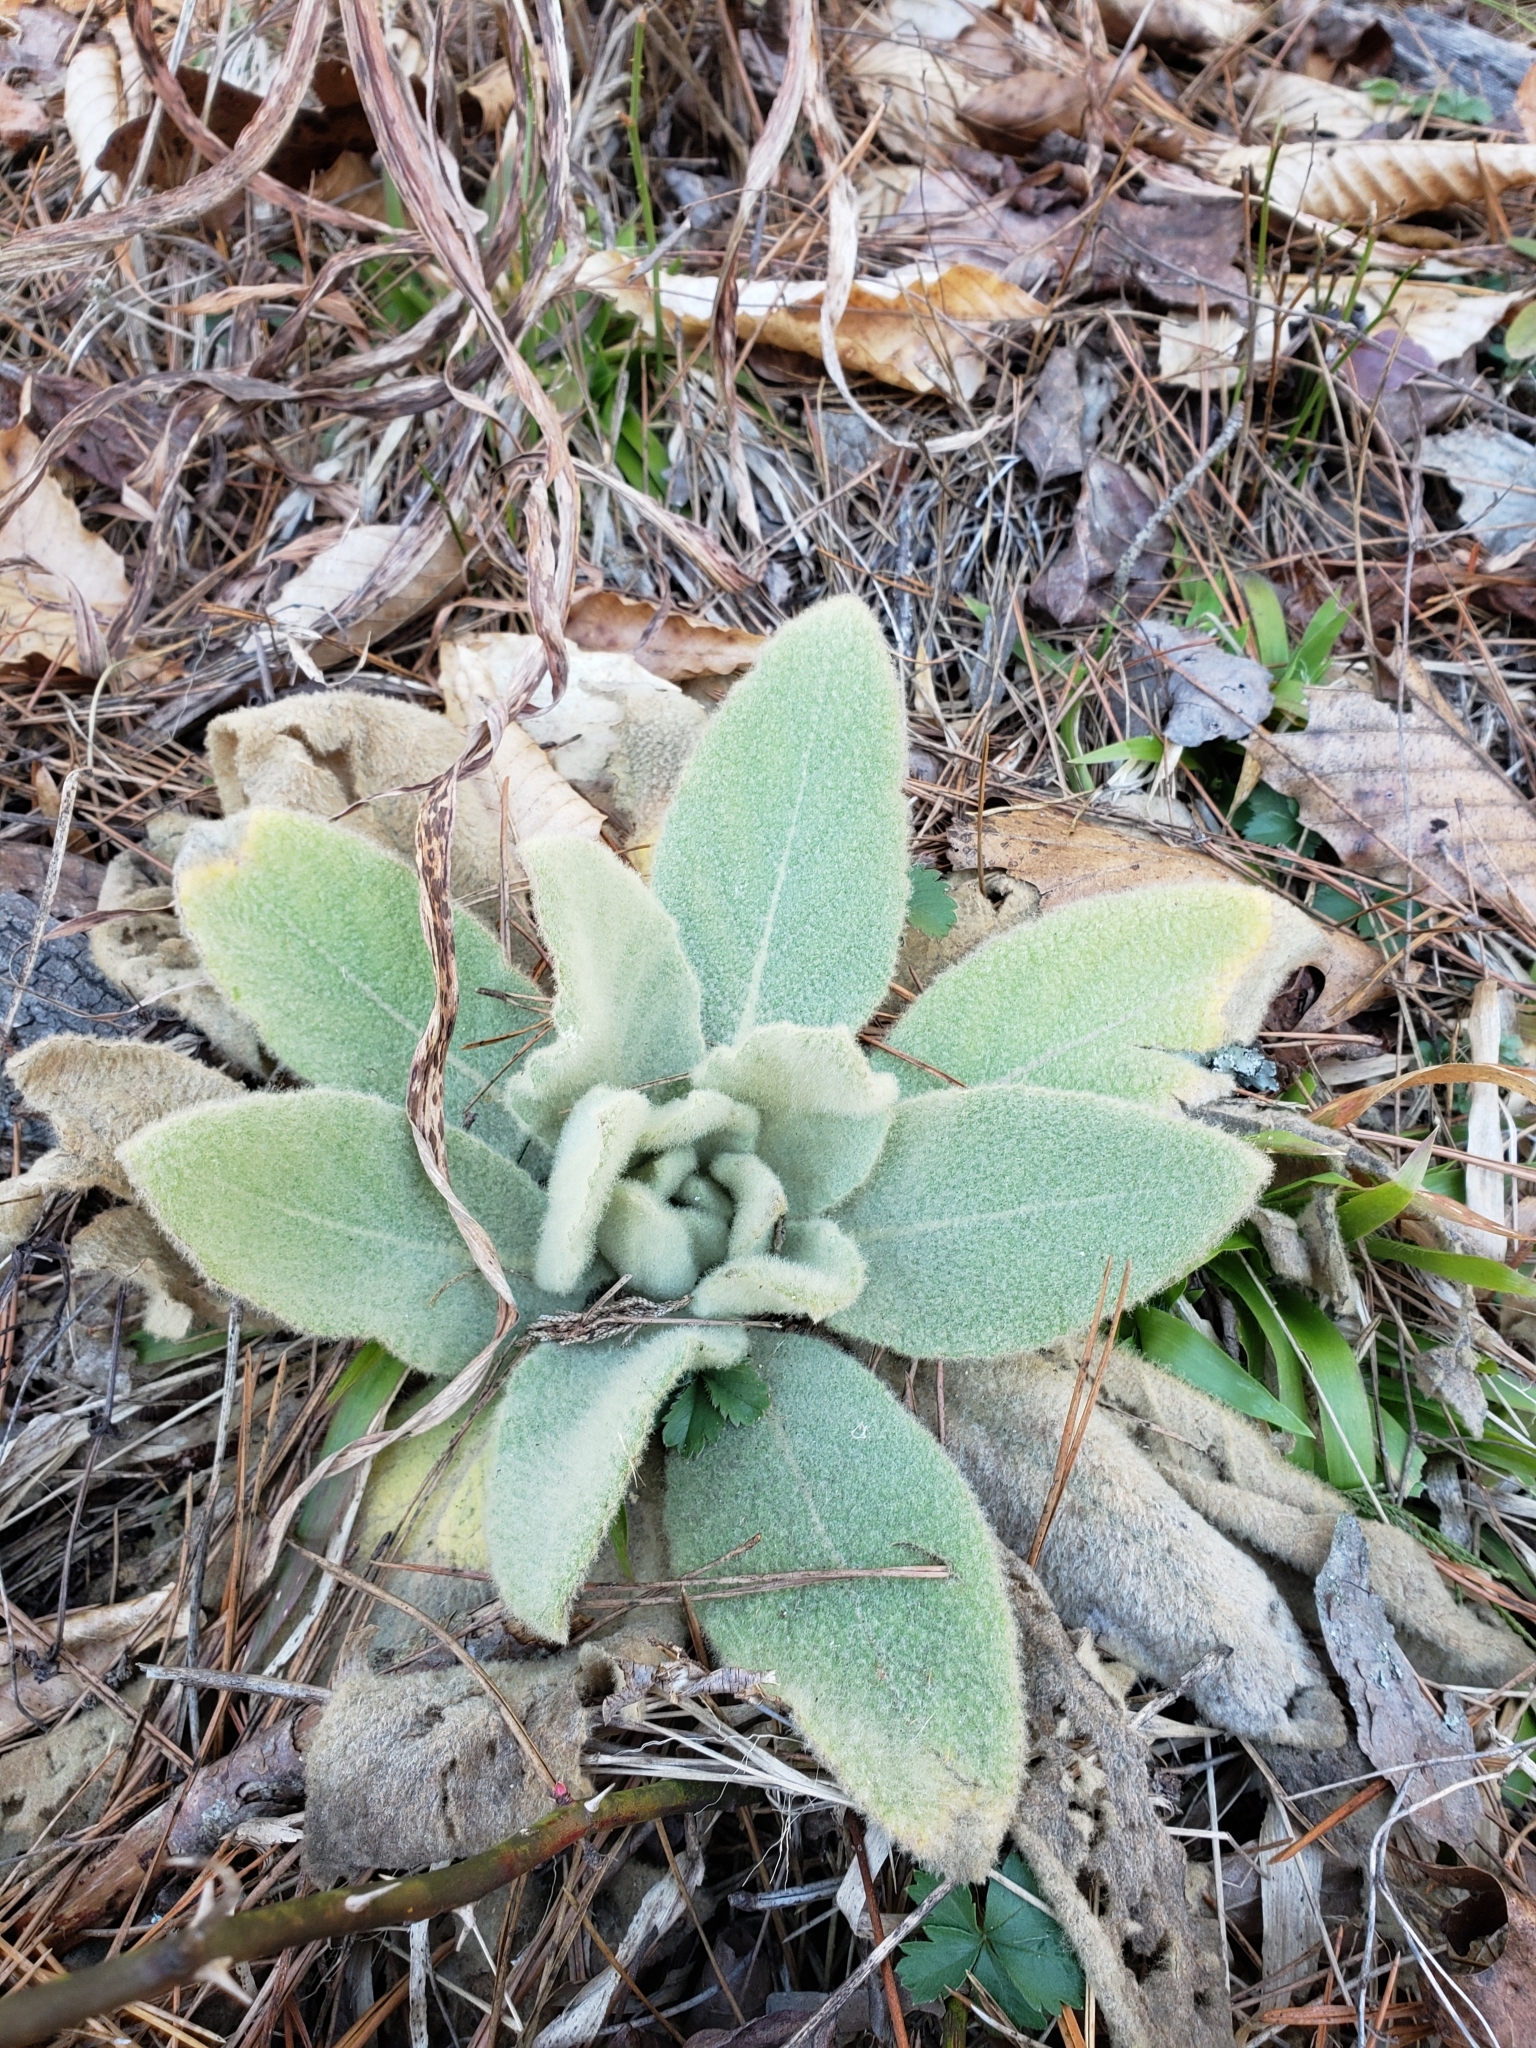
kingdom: Plantae
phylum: Tracheophyta
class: Magnoliopsida
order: Lamiales
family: Scrophulariaceae
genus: Verbascum
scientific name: Verbascum thapsus
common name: Common mullein
